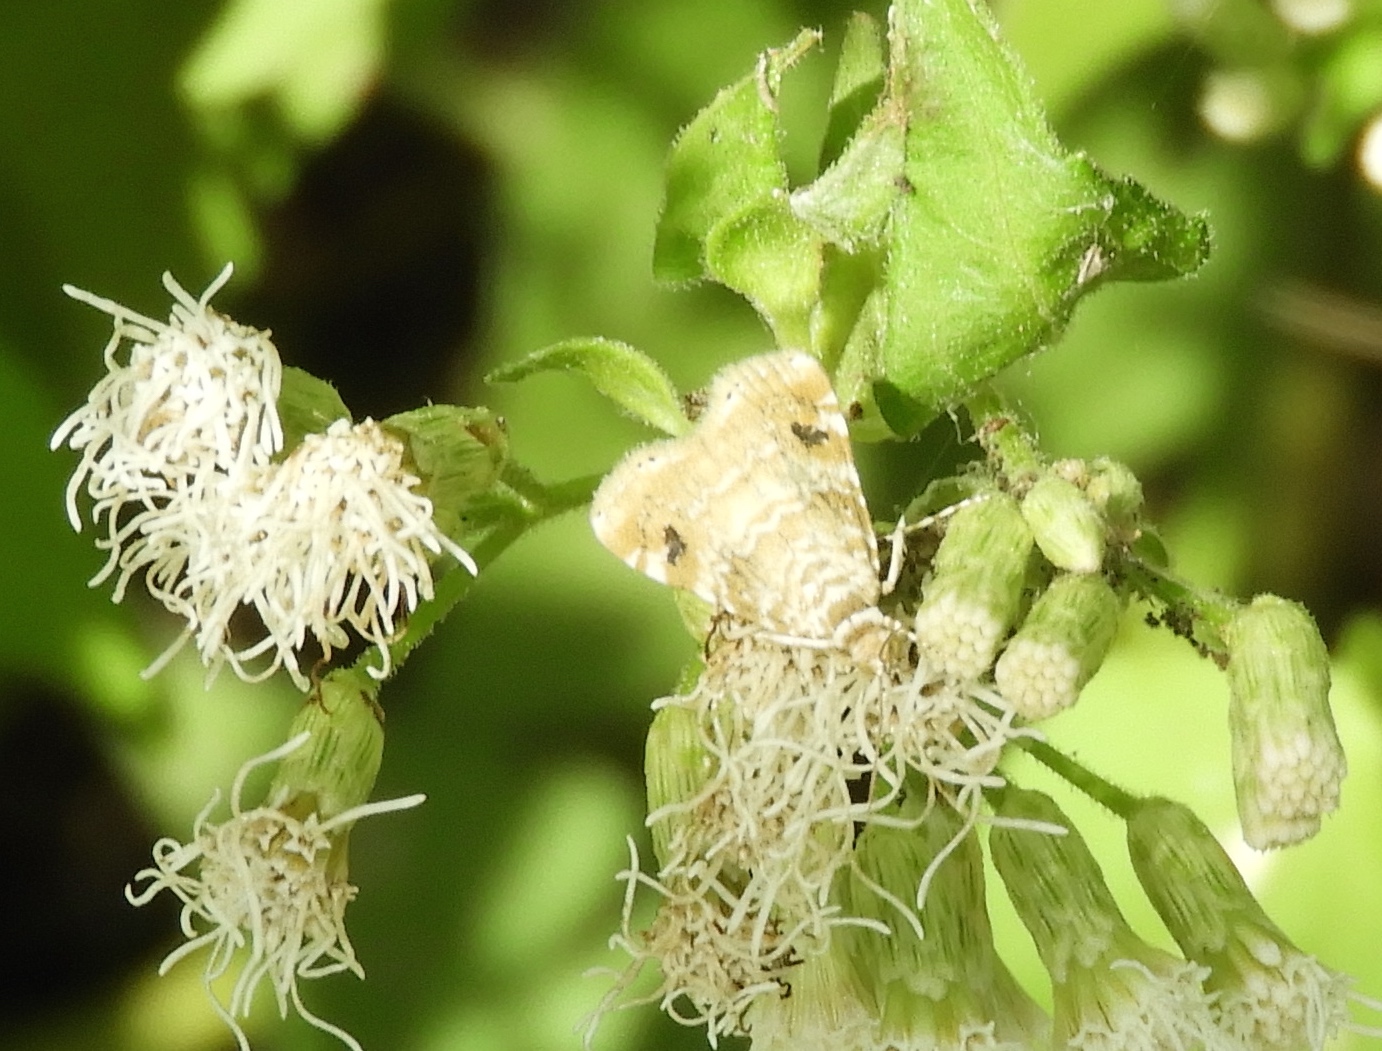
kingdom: Animalia
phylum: Arthropoda
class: Insecta
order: Lepidoptera
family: Crambidae
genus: Hellula
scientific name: Hellula
